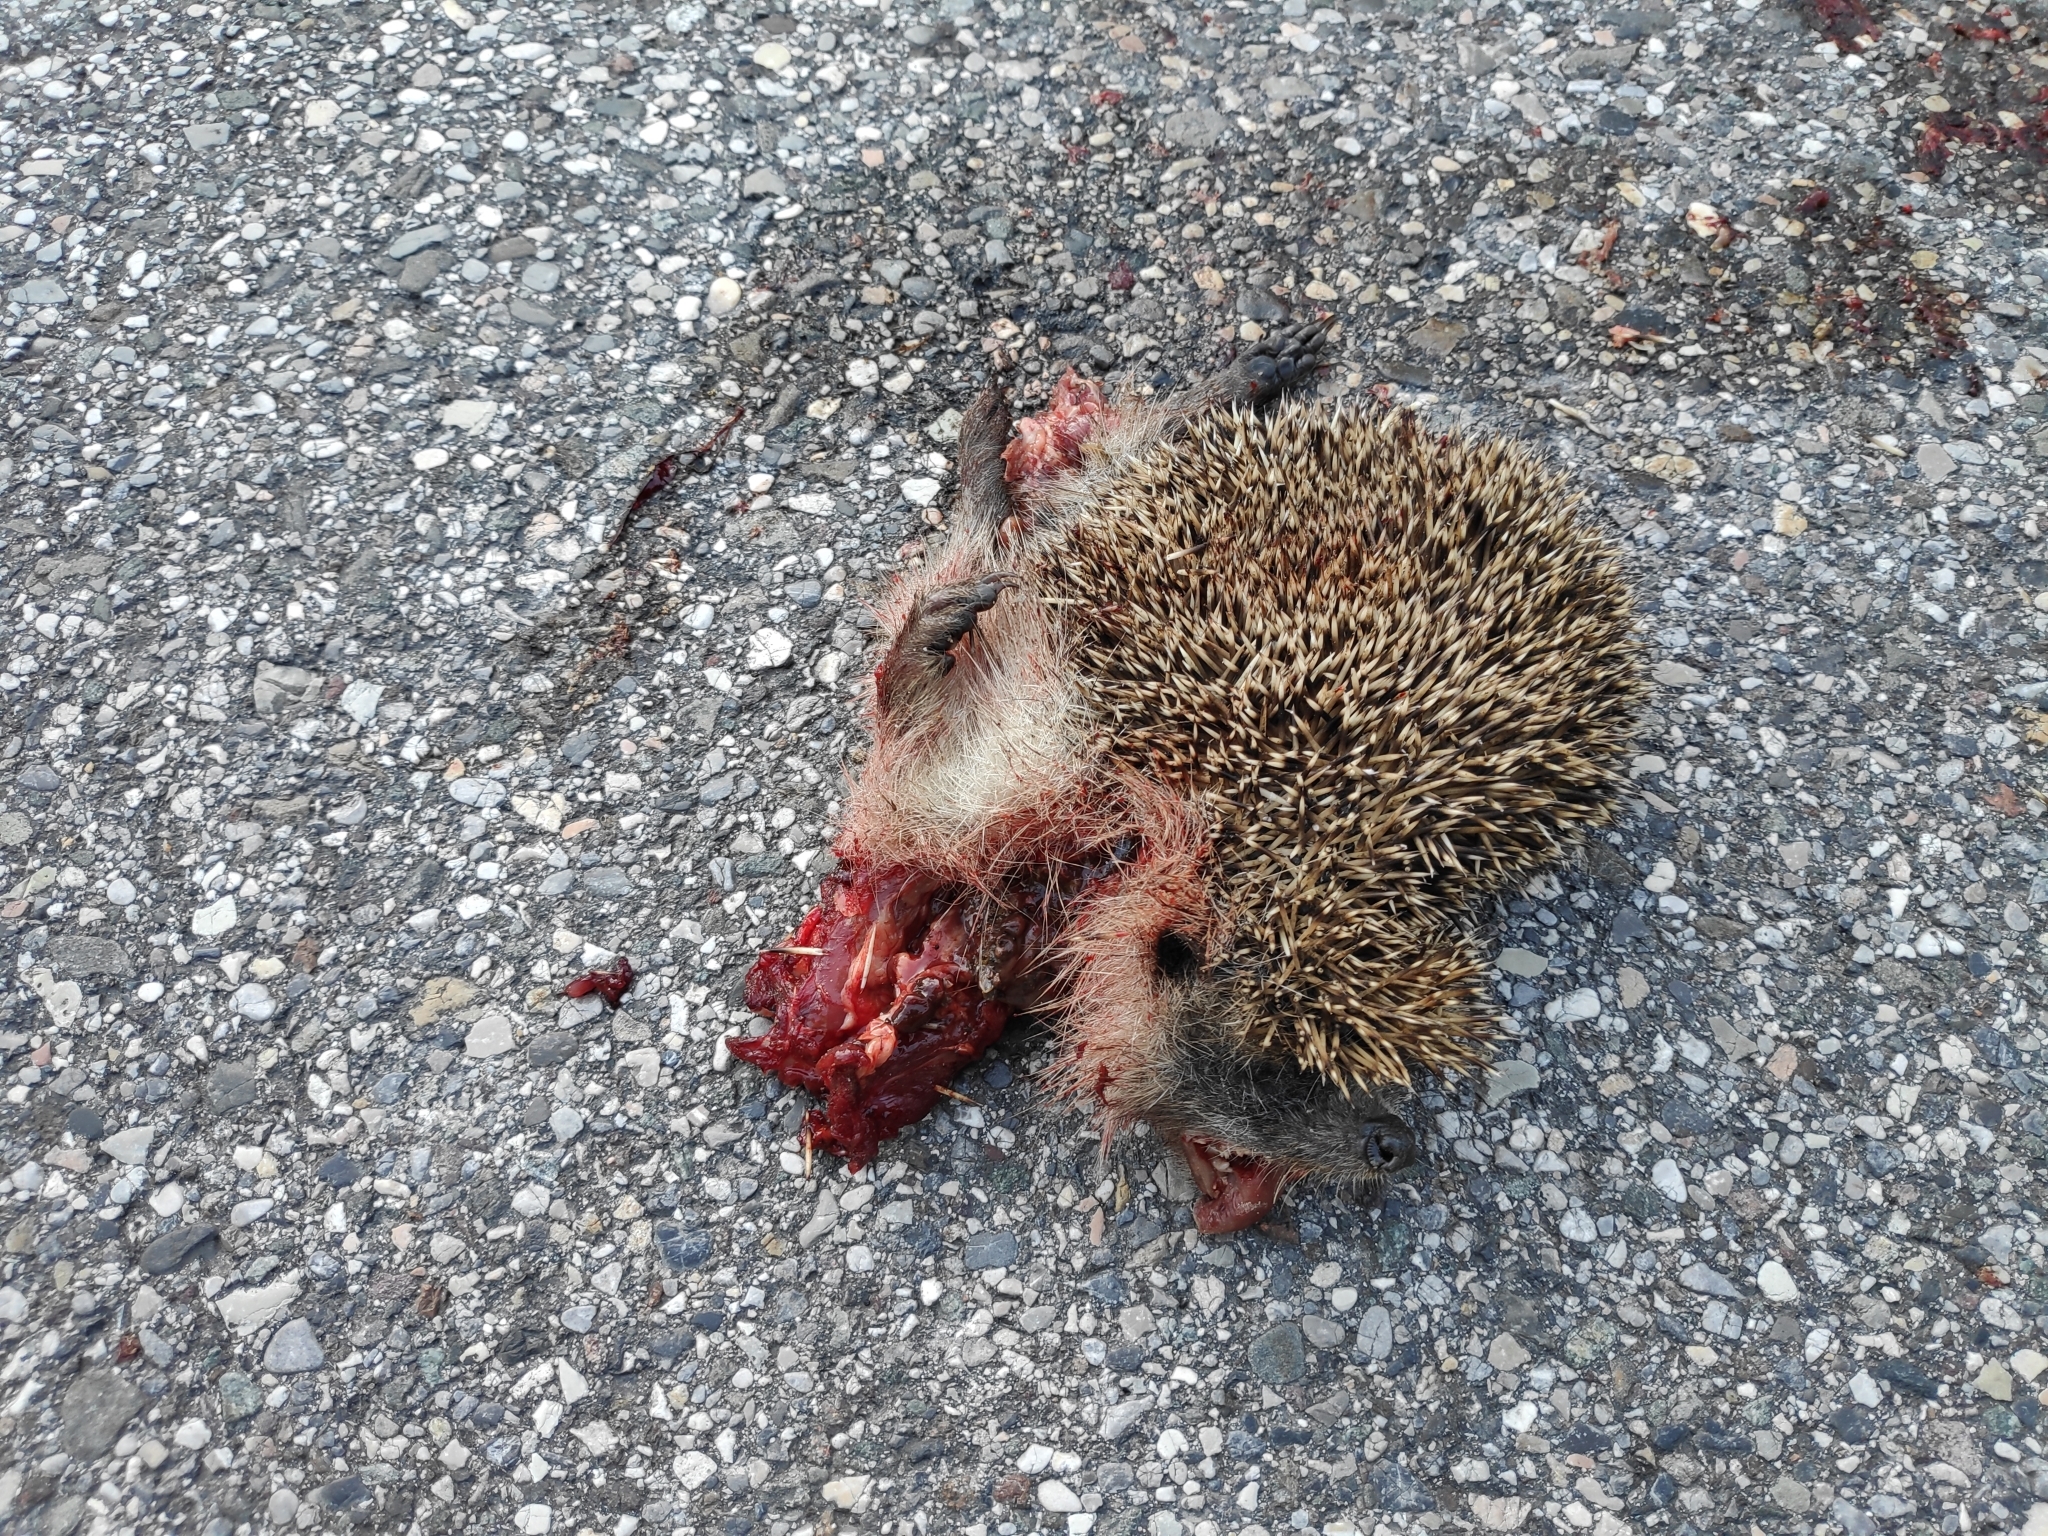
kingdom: Animalia
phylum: Chordata
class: Mammalia
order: Erinaceomorpha
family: Erinaceidae
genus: Erinaceus
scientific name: Erinaceus europaeus
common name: West european hedgehog
